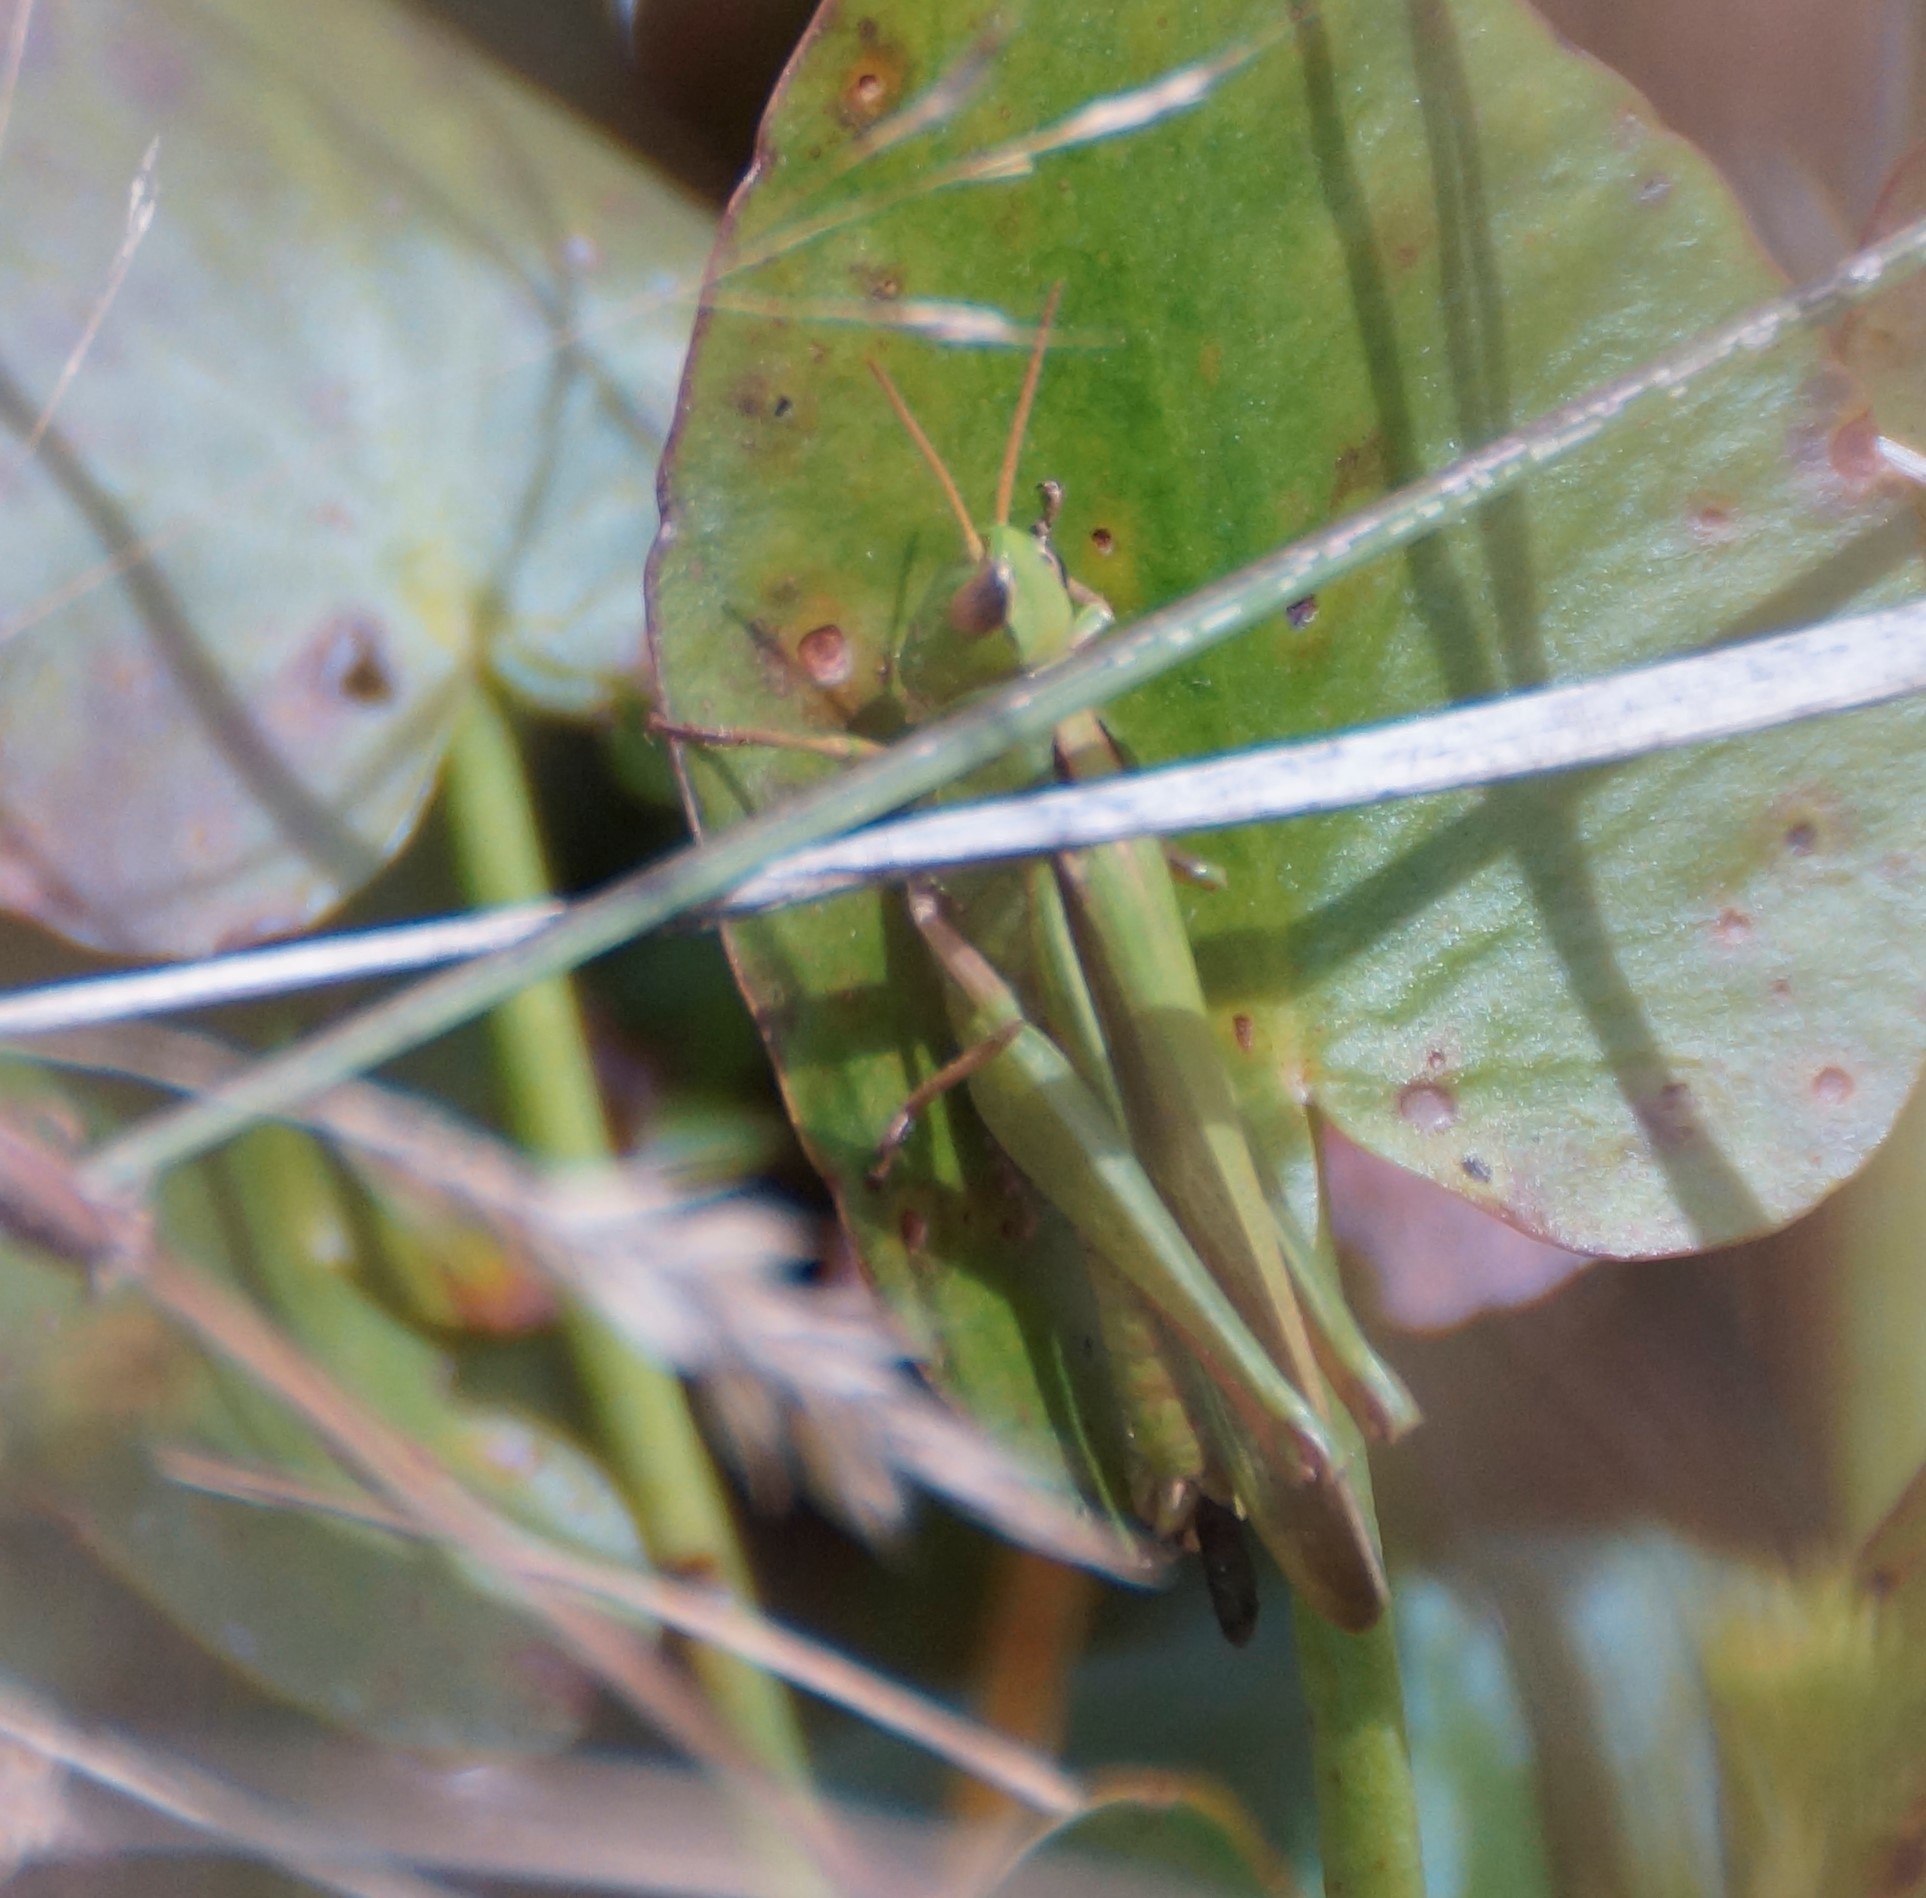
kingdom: Animalia
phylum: Arthropoda
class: Insecta
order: Orthoptera
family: Acrididae
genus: Schizobothrus
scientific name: Schizobothrus flavovittatus
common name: Disappearing grasshopper
